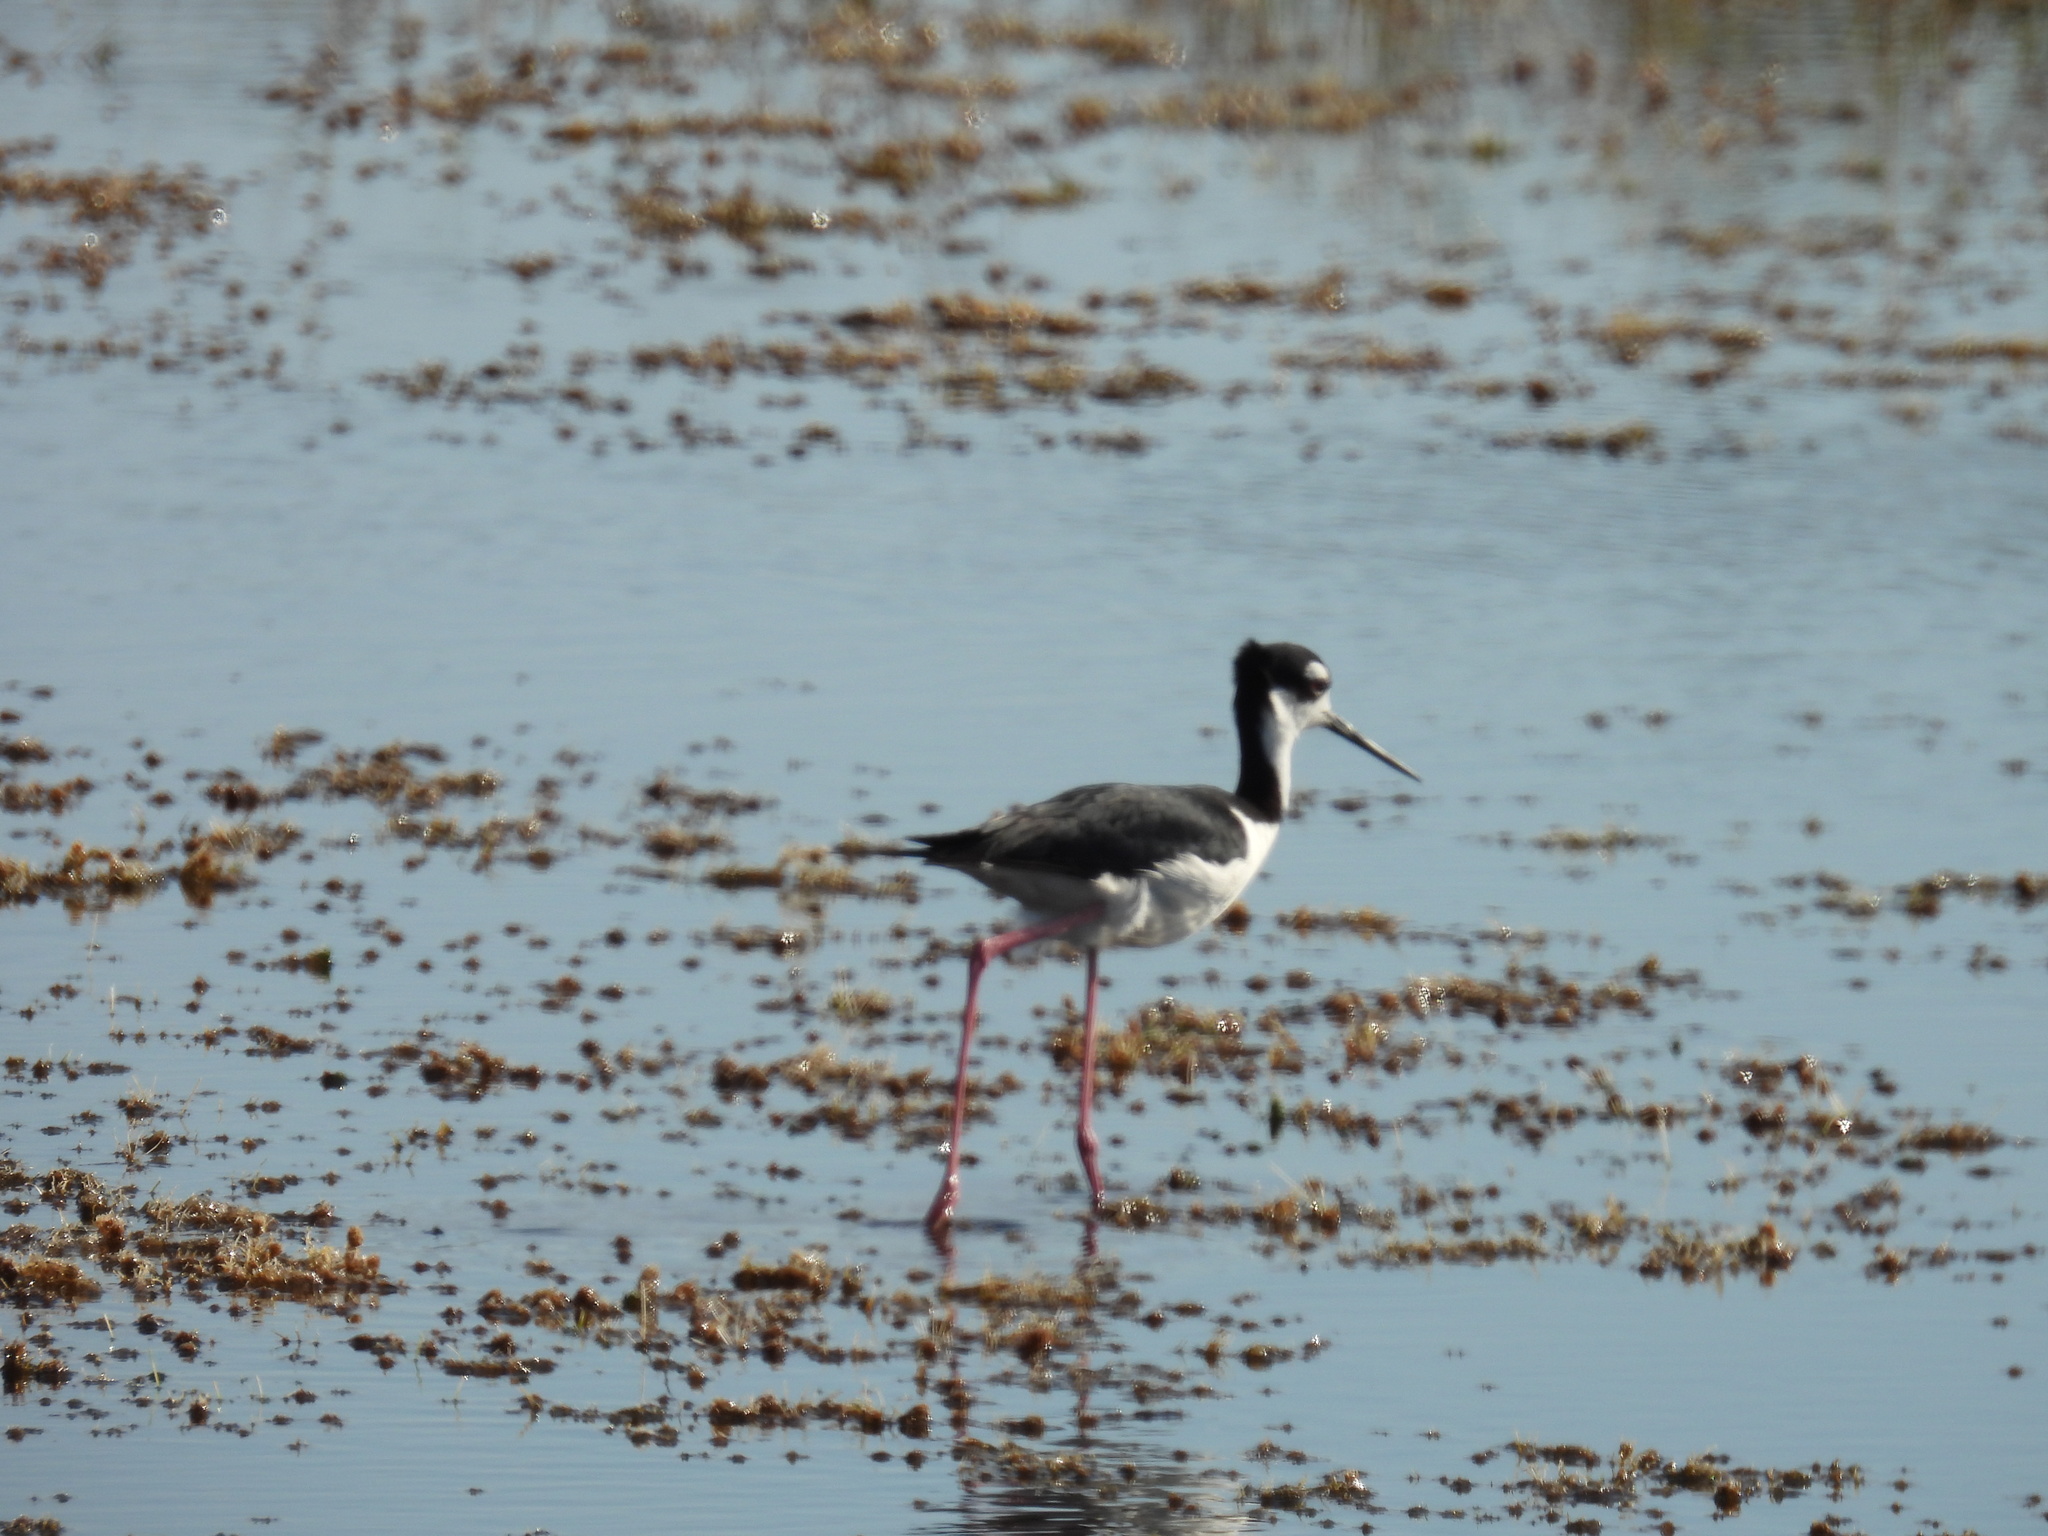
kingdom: Animalia
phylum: Chordata
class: Aves
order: Charadriiformes
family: Recurvirostridae
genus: Himantopus
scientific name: Himantopus mexicanus
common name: Black-necked stilt
